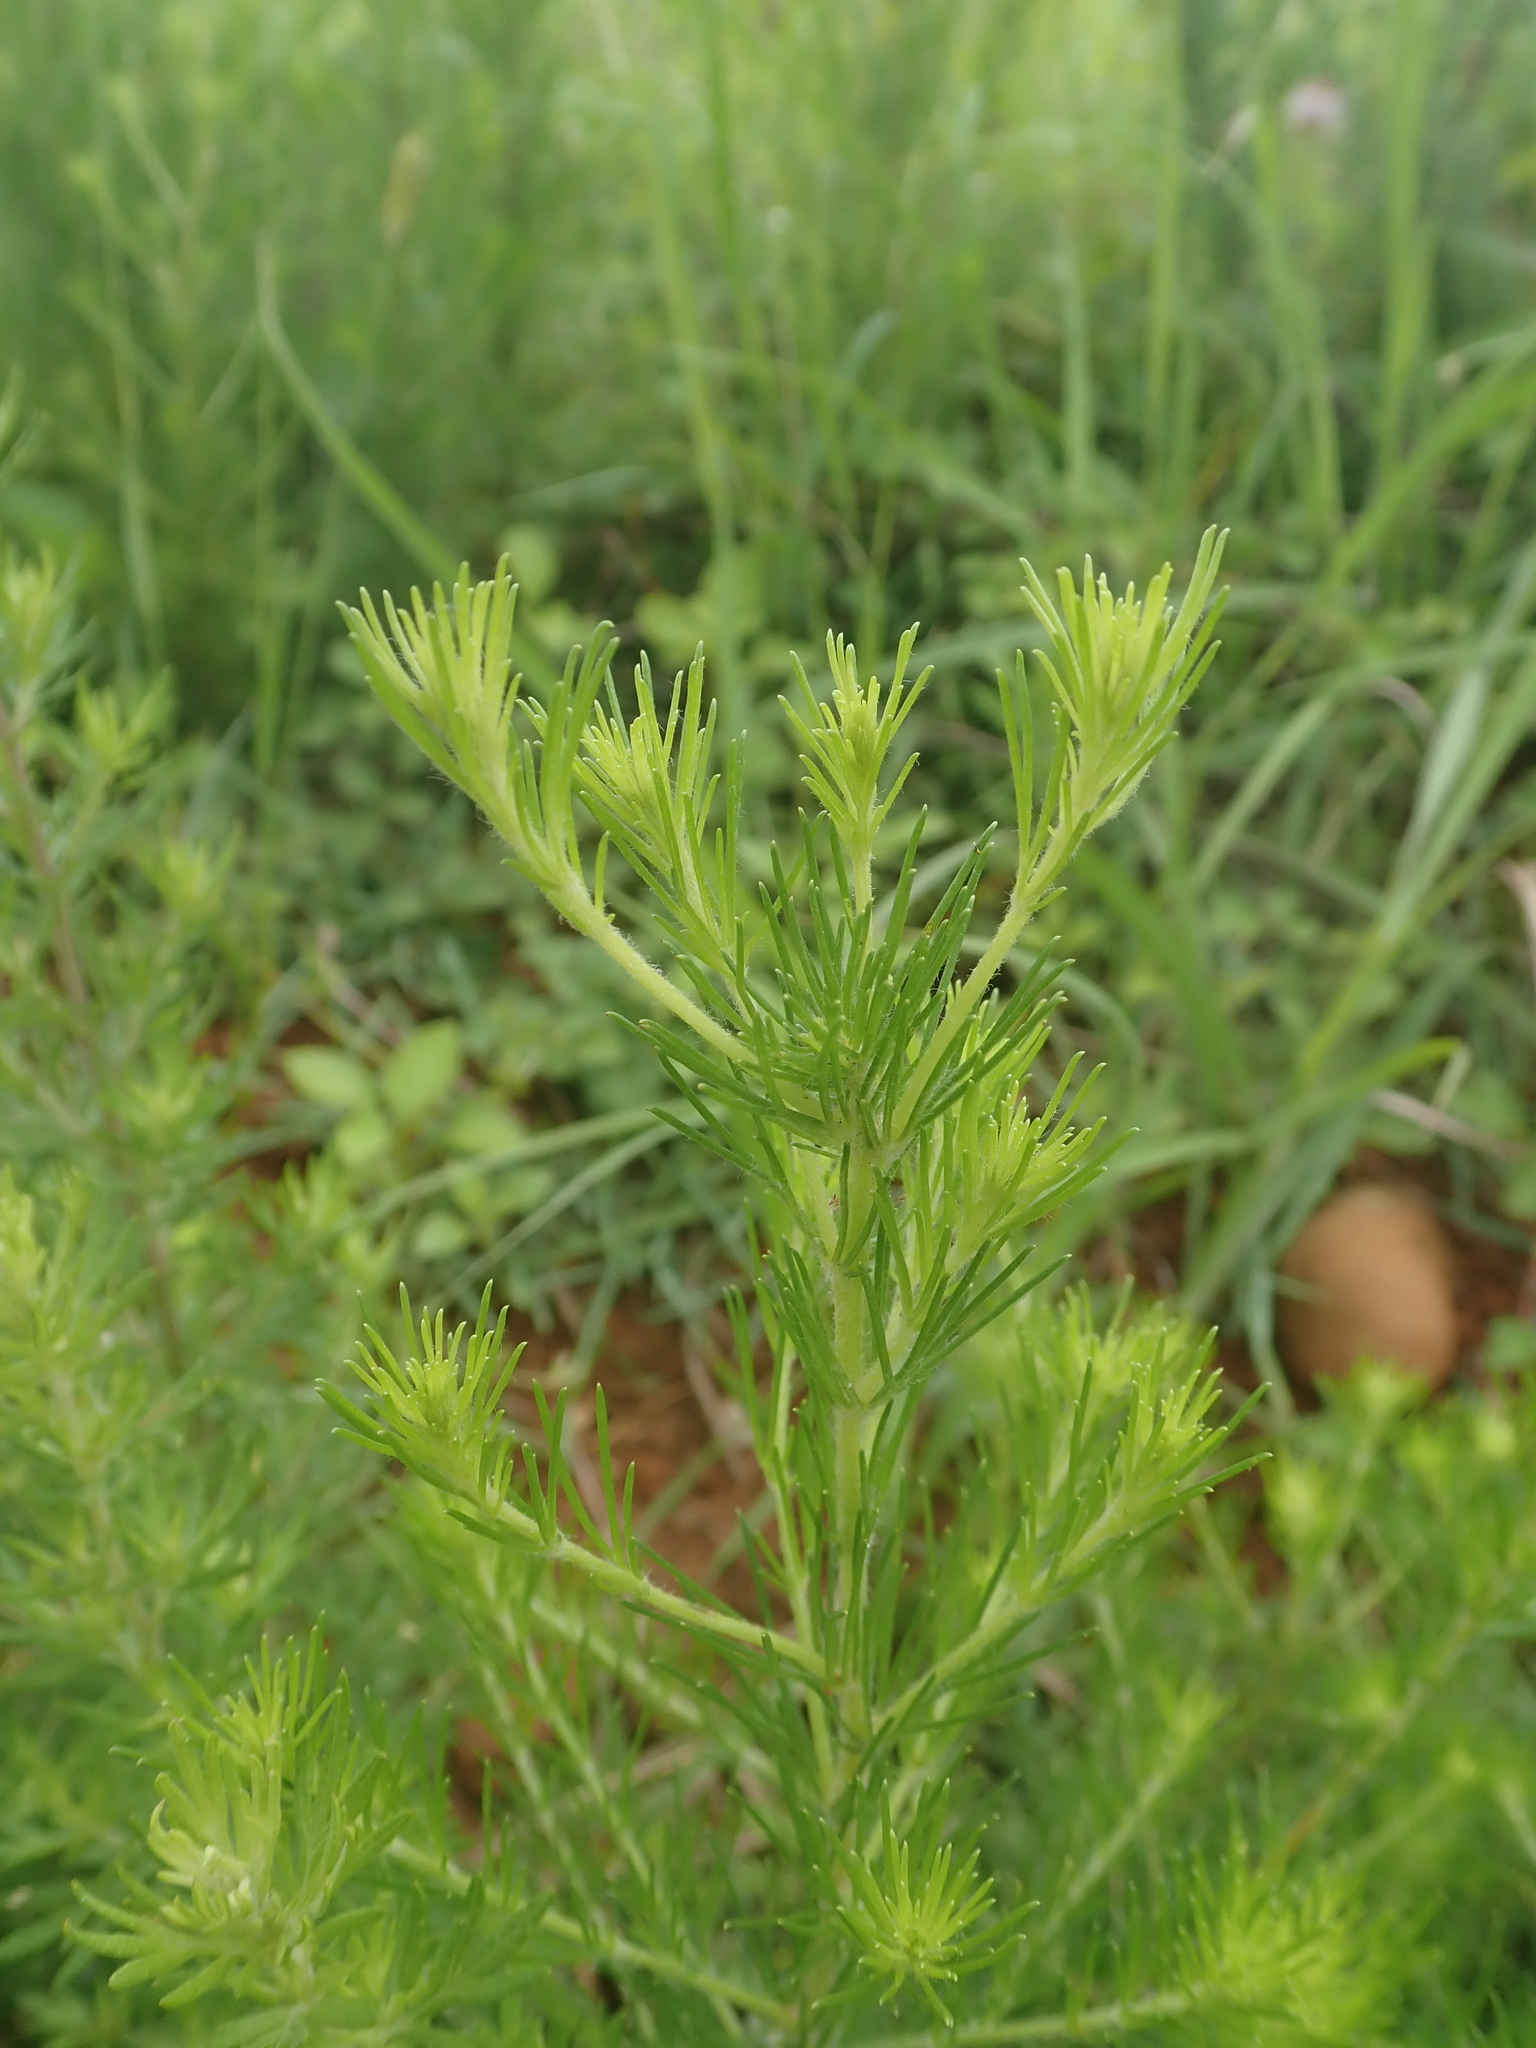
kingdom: Plantae
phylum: Tracheophyta
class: Magnoliopsida
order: Asterales
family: Asteraceae
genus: Artemisia
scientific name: Artemisia capillaris
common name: Yin-chen wormwood
